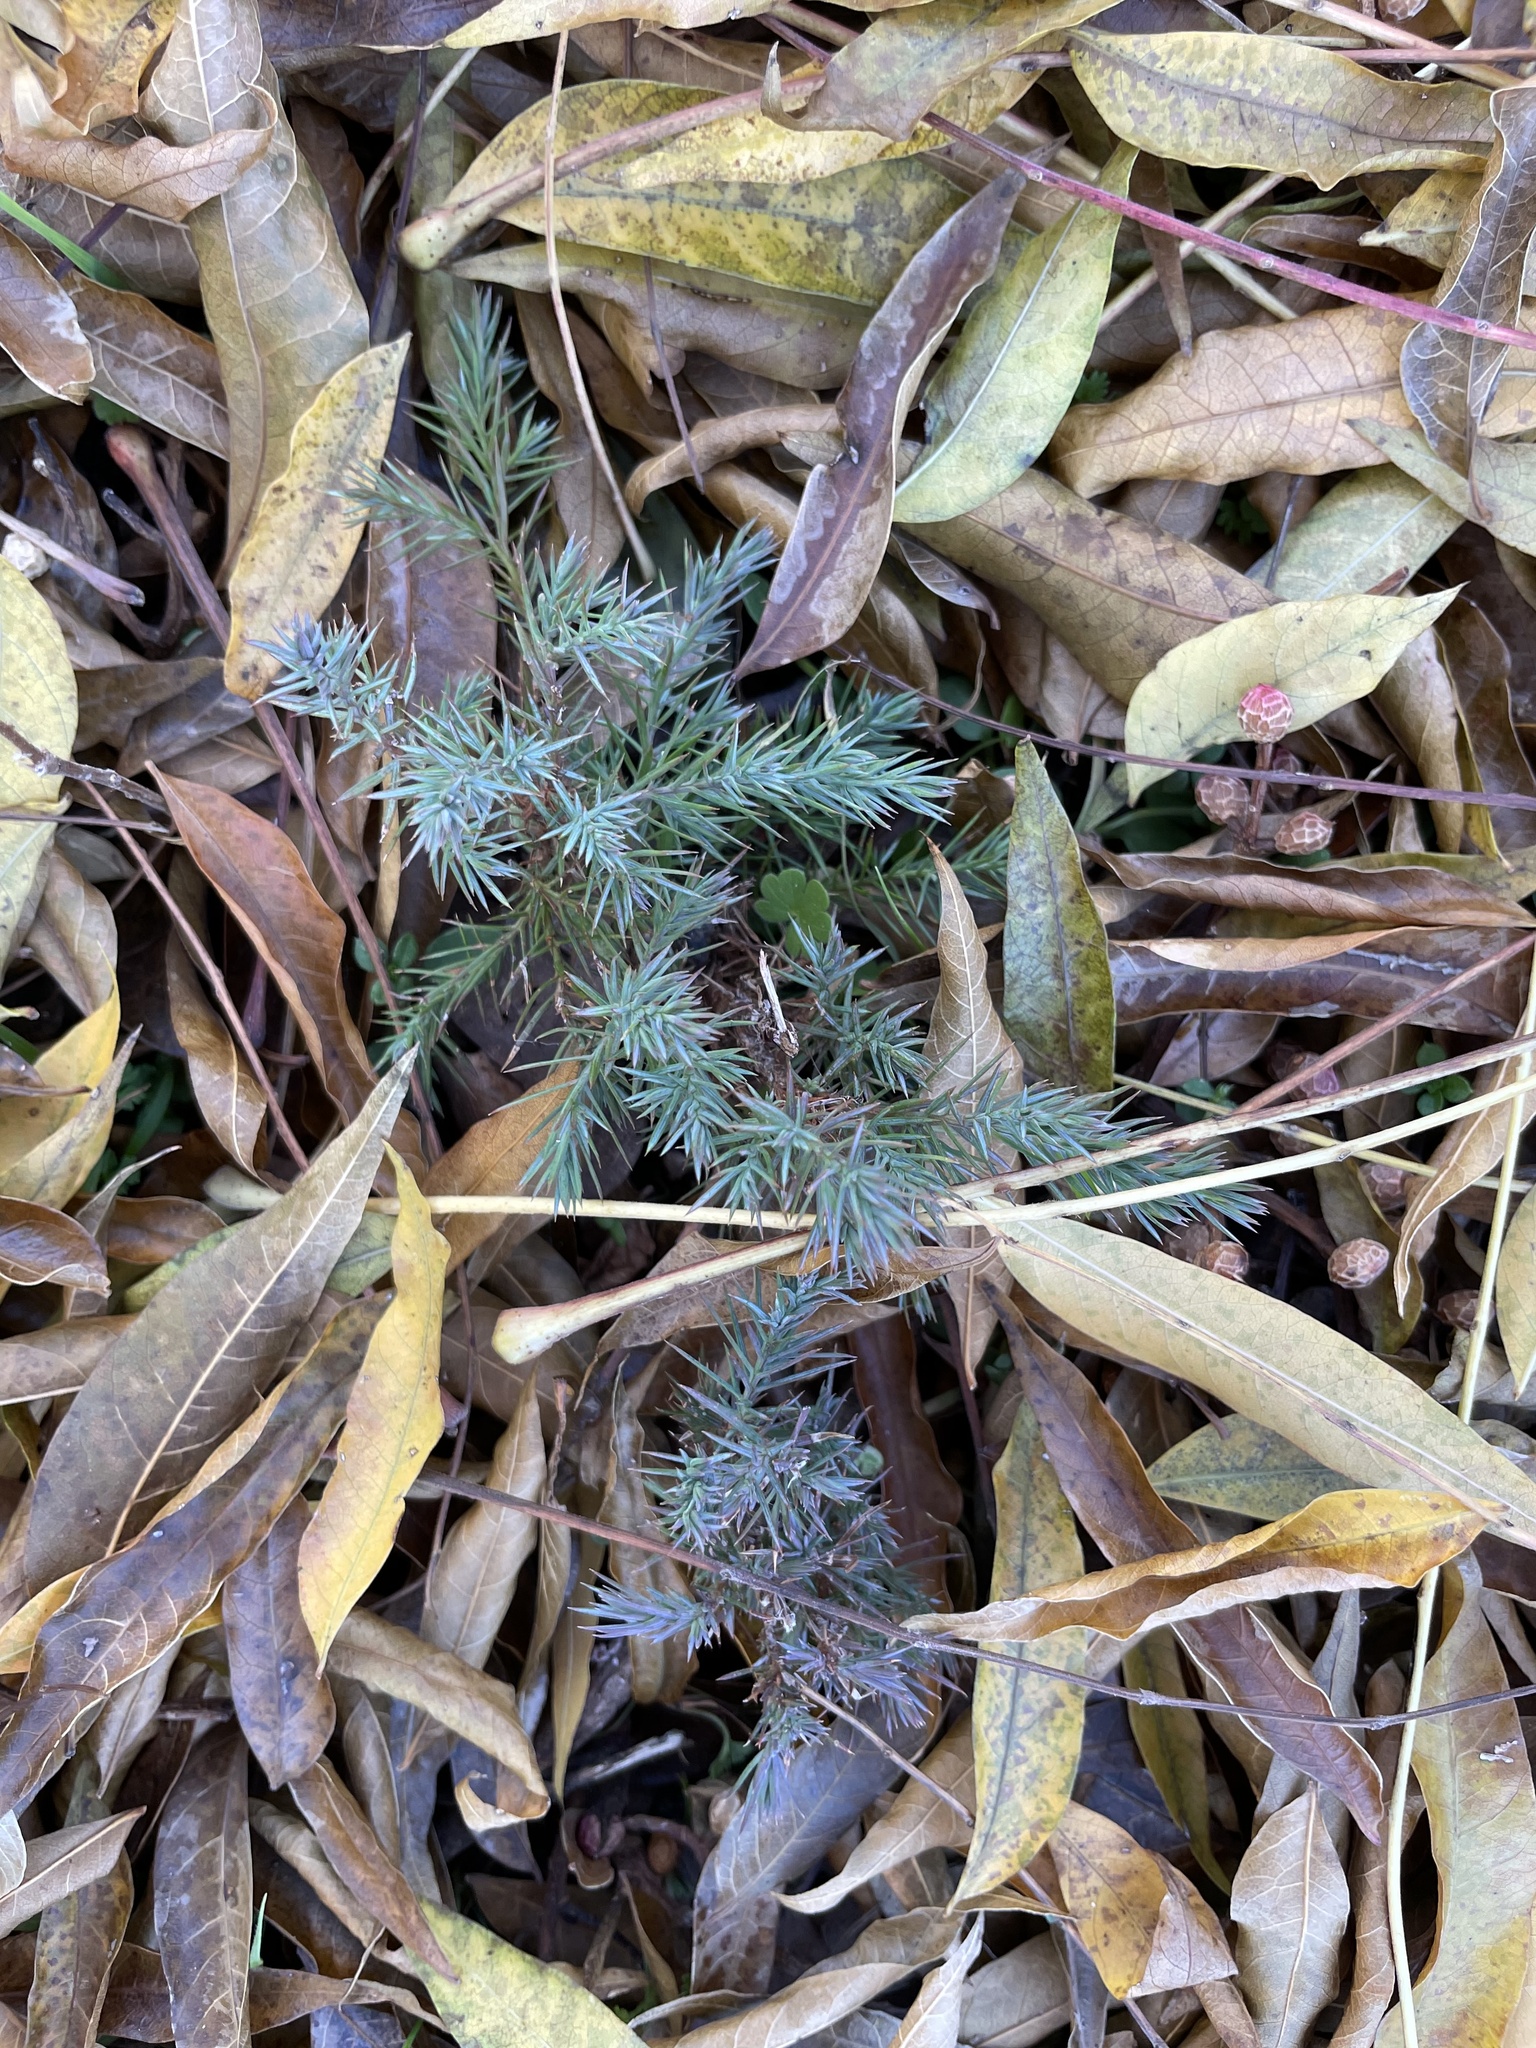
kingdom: Plantae
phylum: Tracheophyta
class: Pinopsida
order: Pinales
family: Cupressaceae
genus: Juniperus
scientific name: Juniperus virginiana
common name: Red juniper
